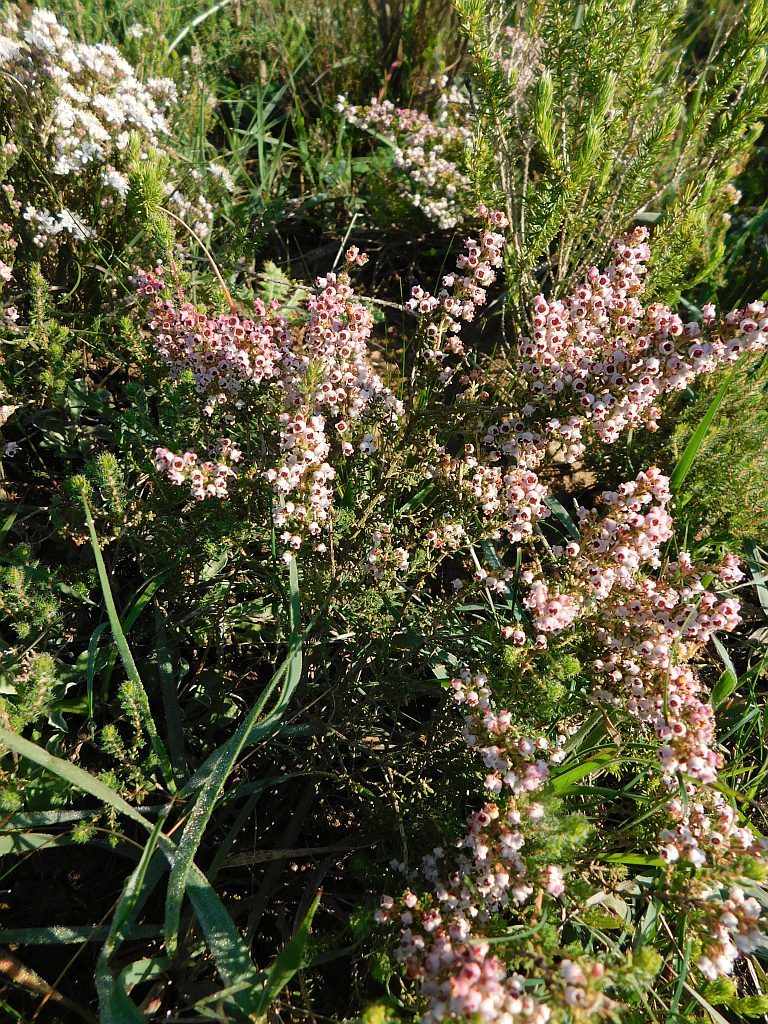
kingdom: Plantae
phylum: Tracheophyta
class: Magnoliopsida
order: Ericales
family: Ericaceae
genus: Erica
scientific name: Erica setacea
